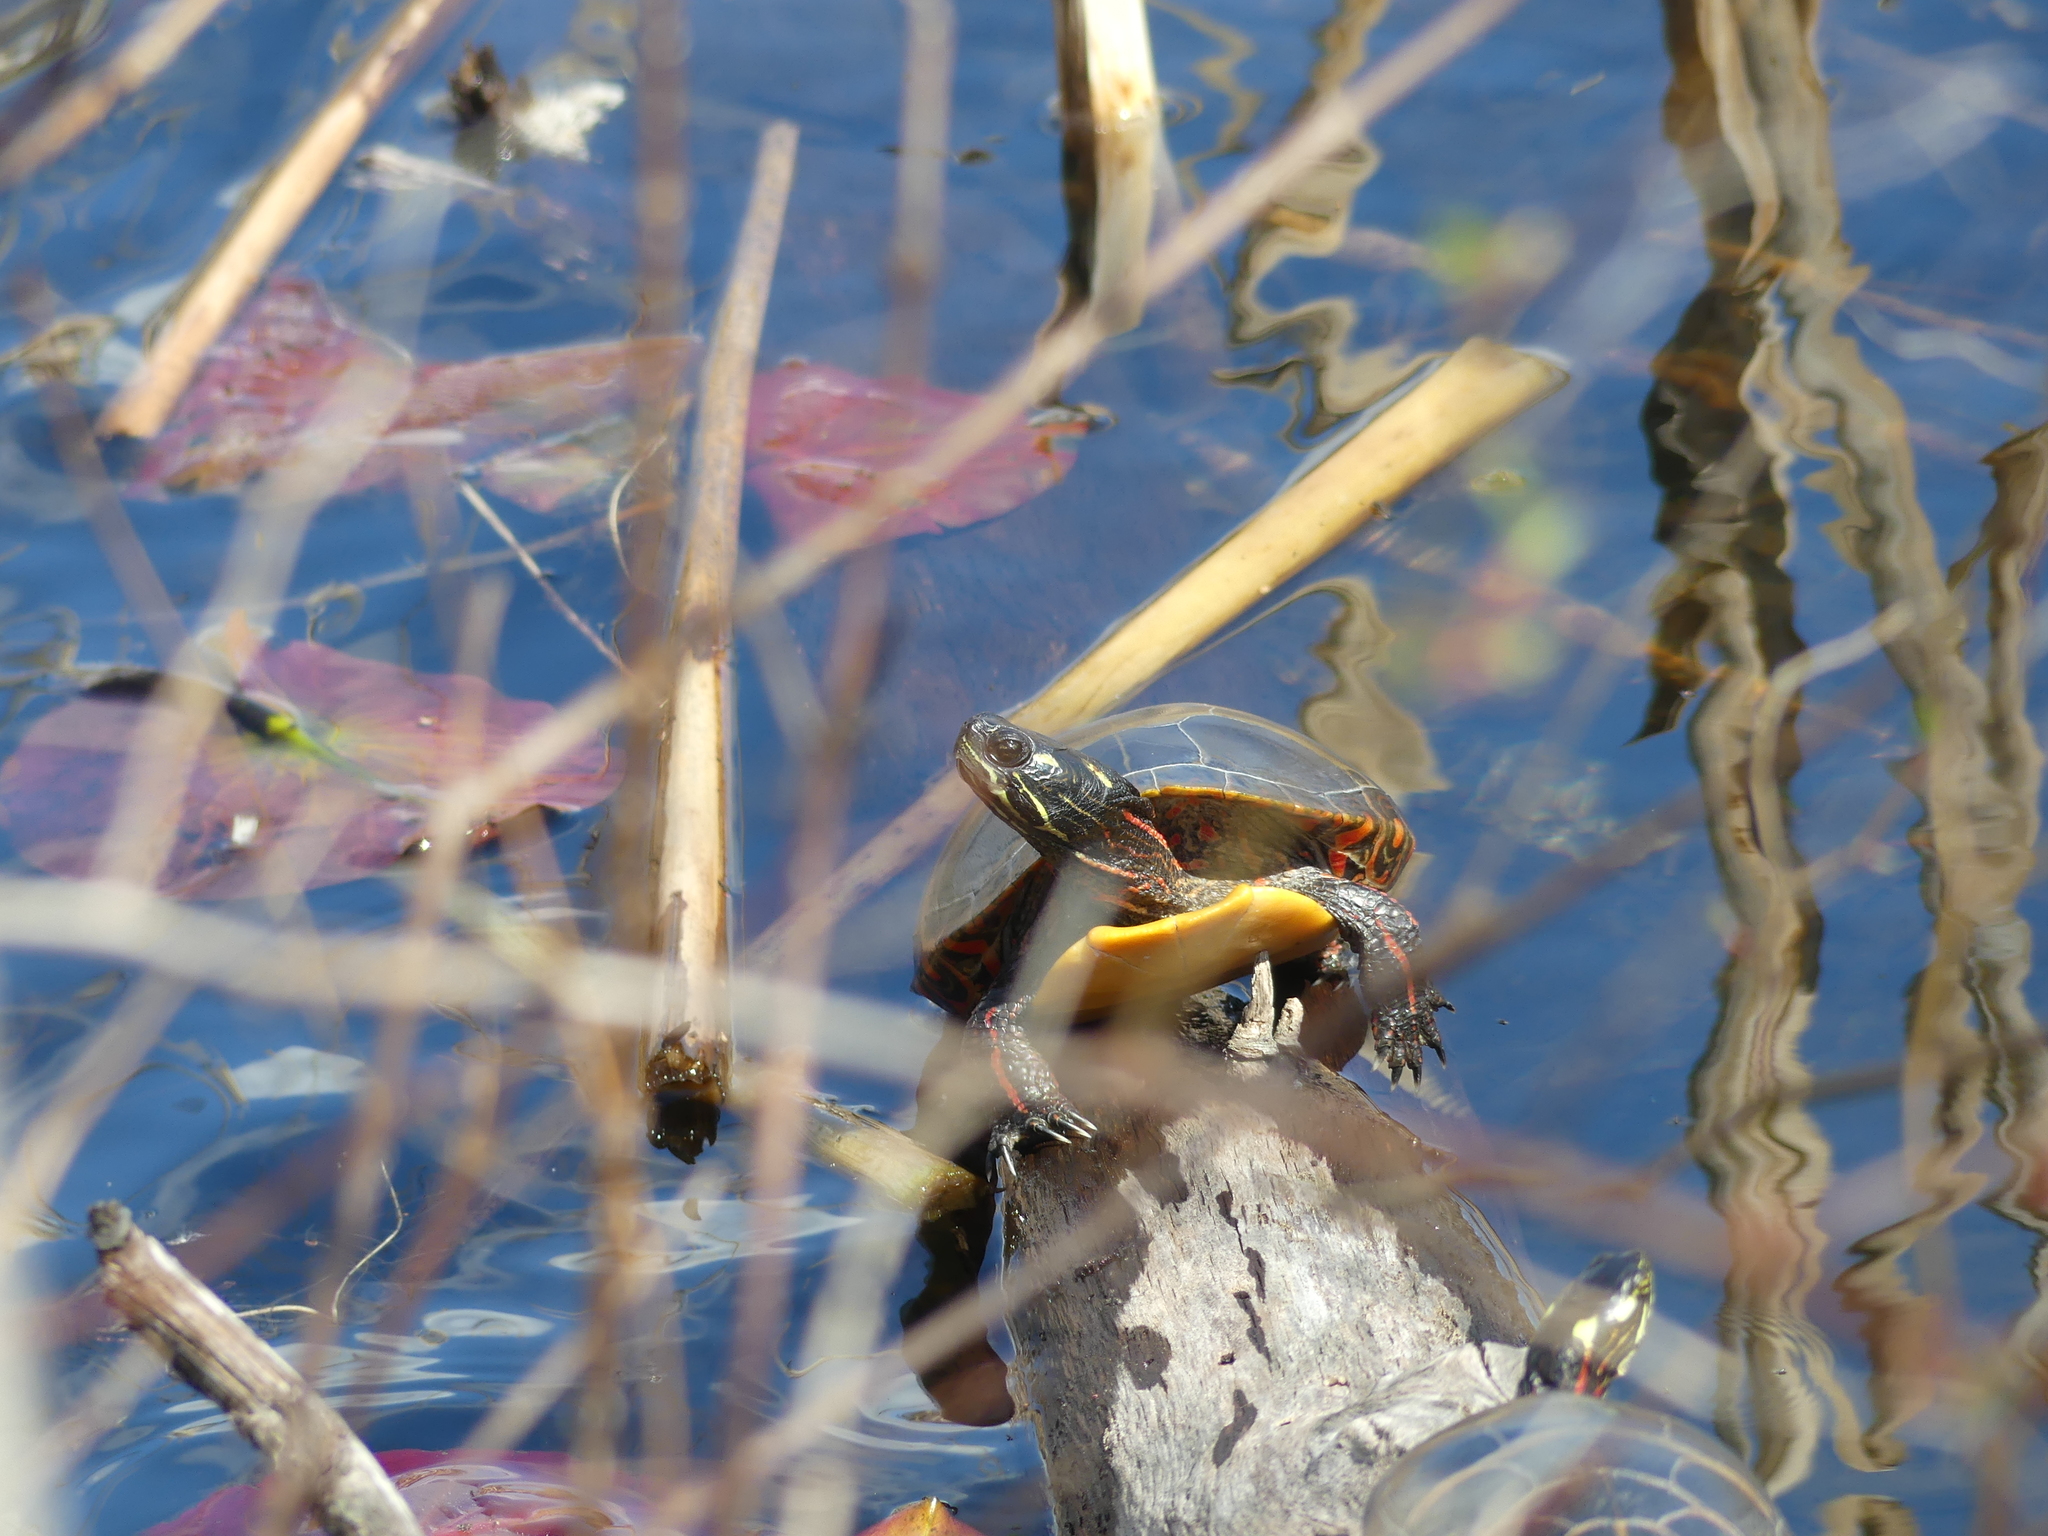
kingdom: Animalia
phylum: Chordata
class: Testudines
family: Emydidae
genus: Chrysemys
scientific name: Chrysemys picta
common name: Painted turtle
